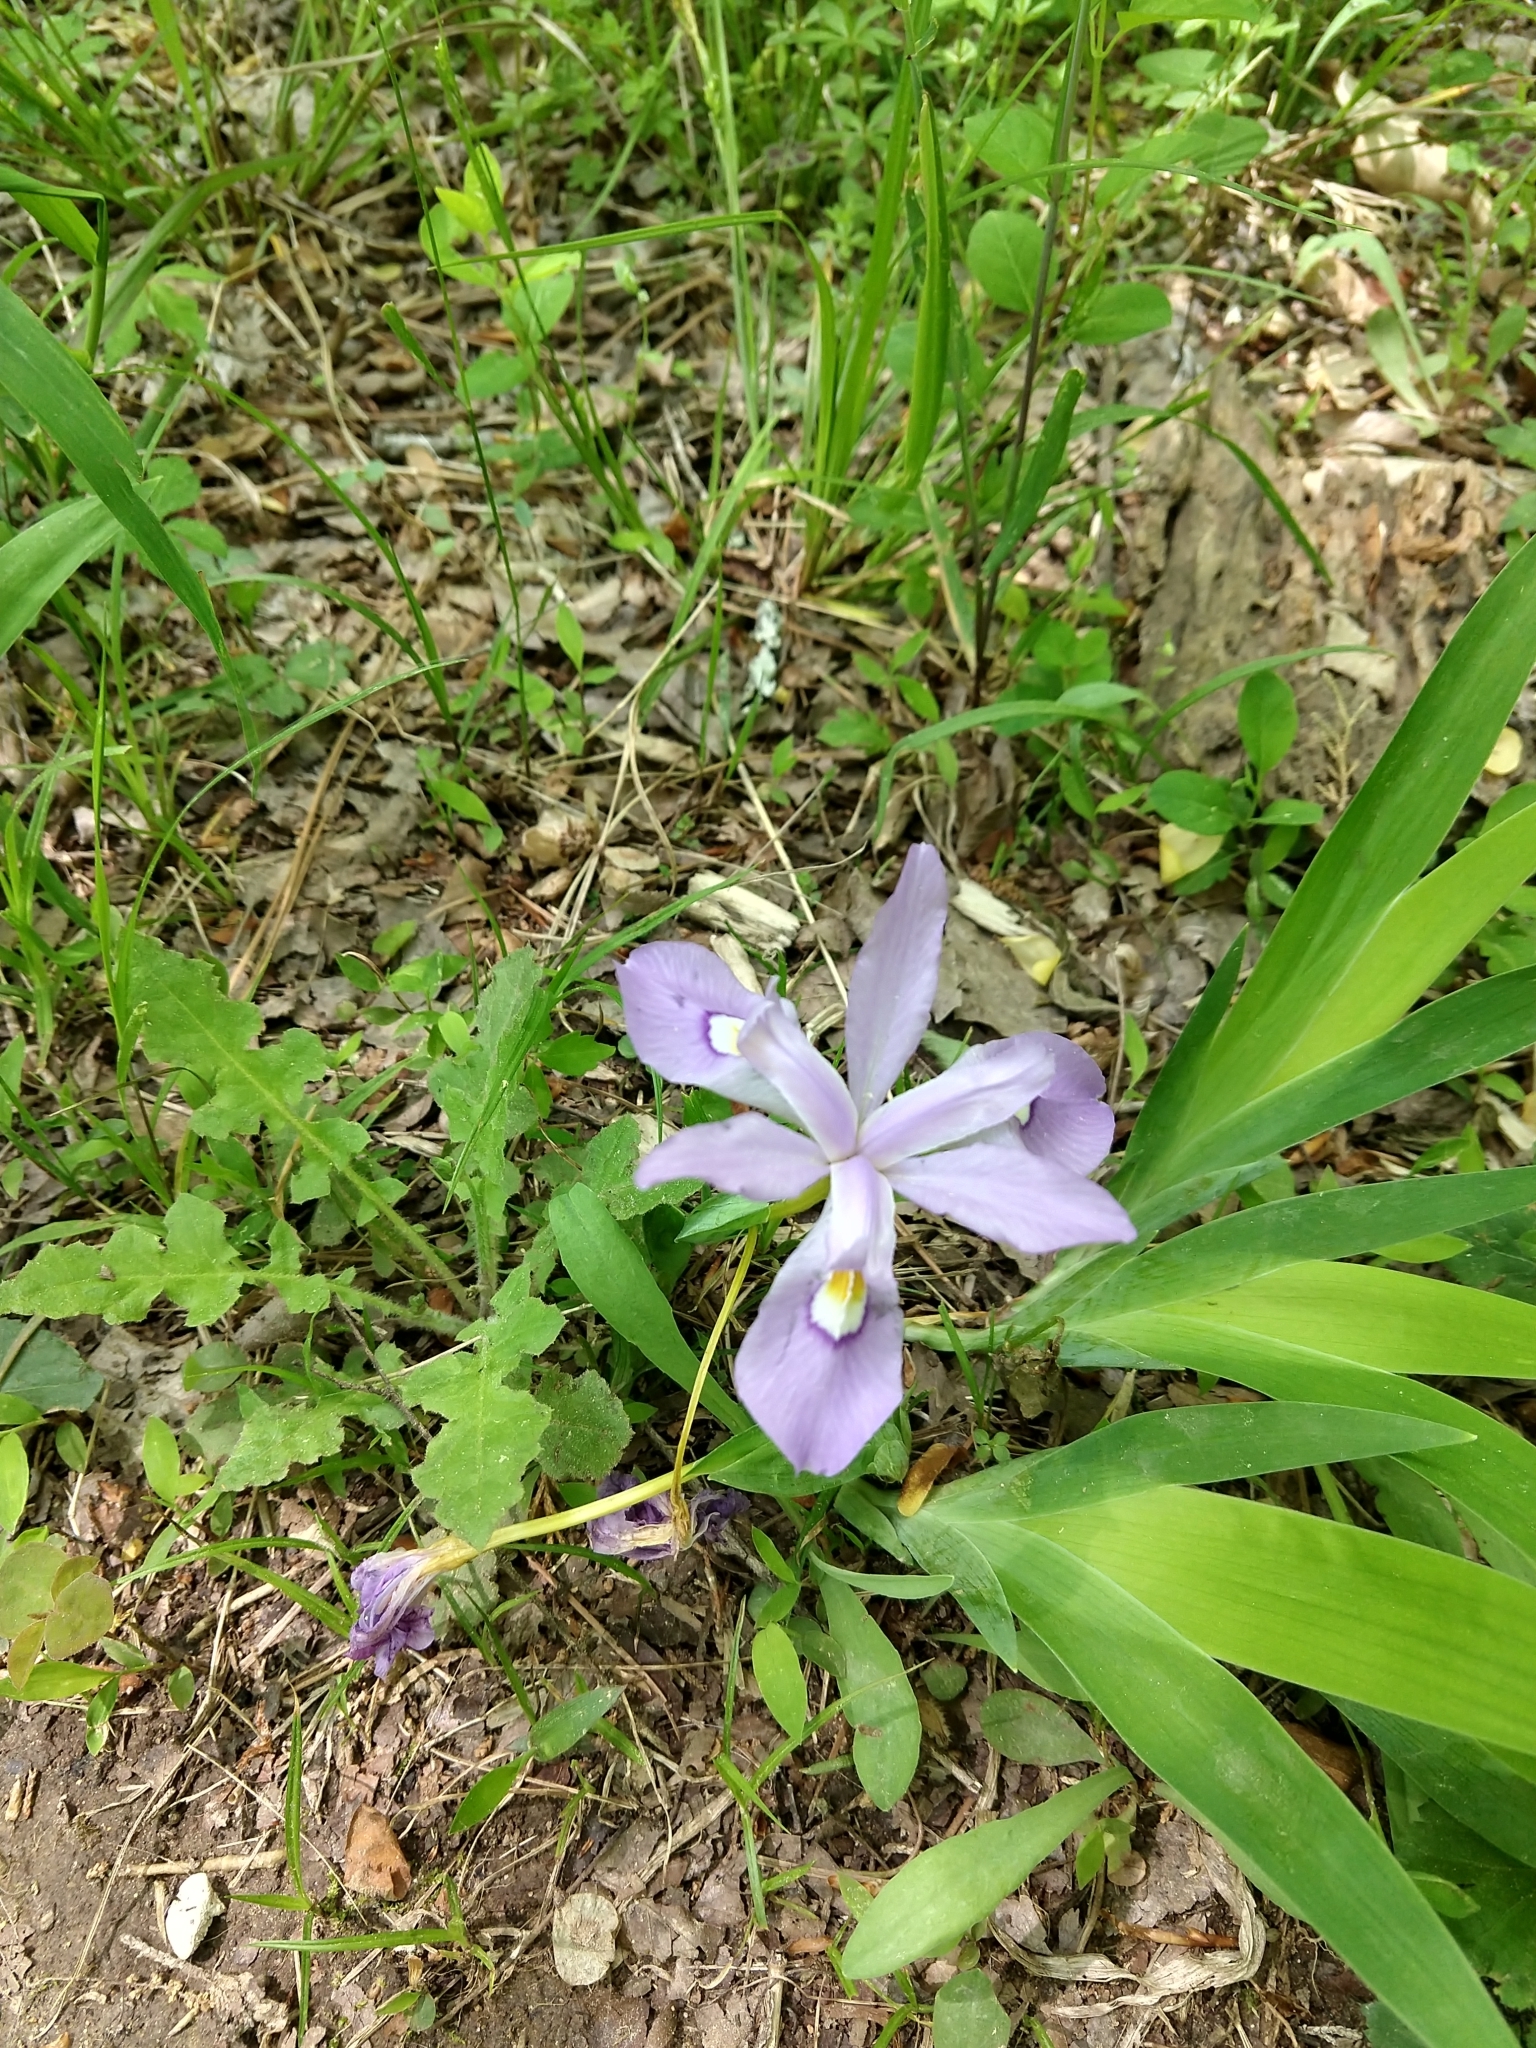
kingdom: Plantae
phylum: Tracheophyta
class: Liliopsida
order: Asparagales
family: Iridaceae
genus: Iris
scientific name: Iris cristata
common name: Crested iris
